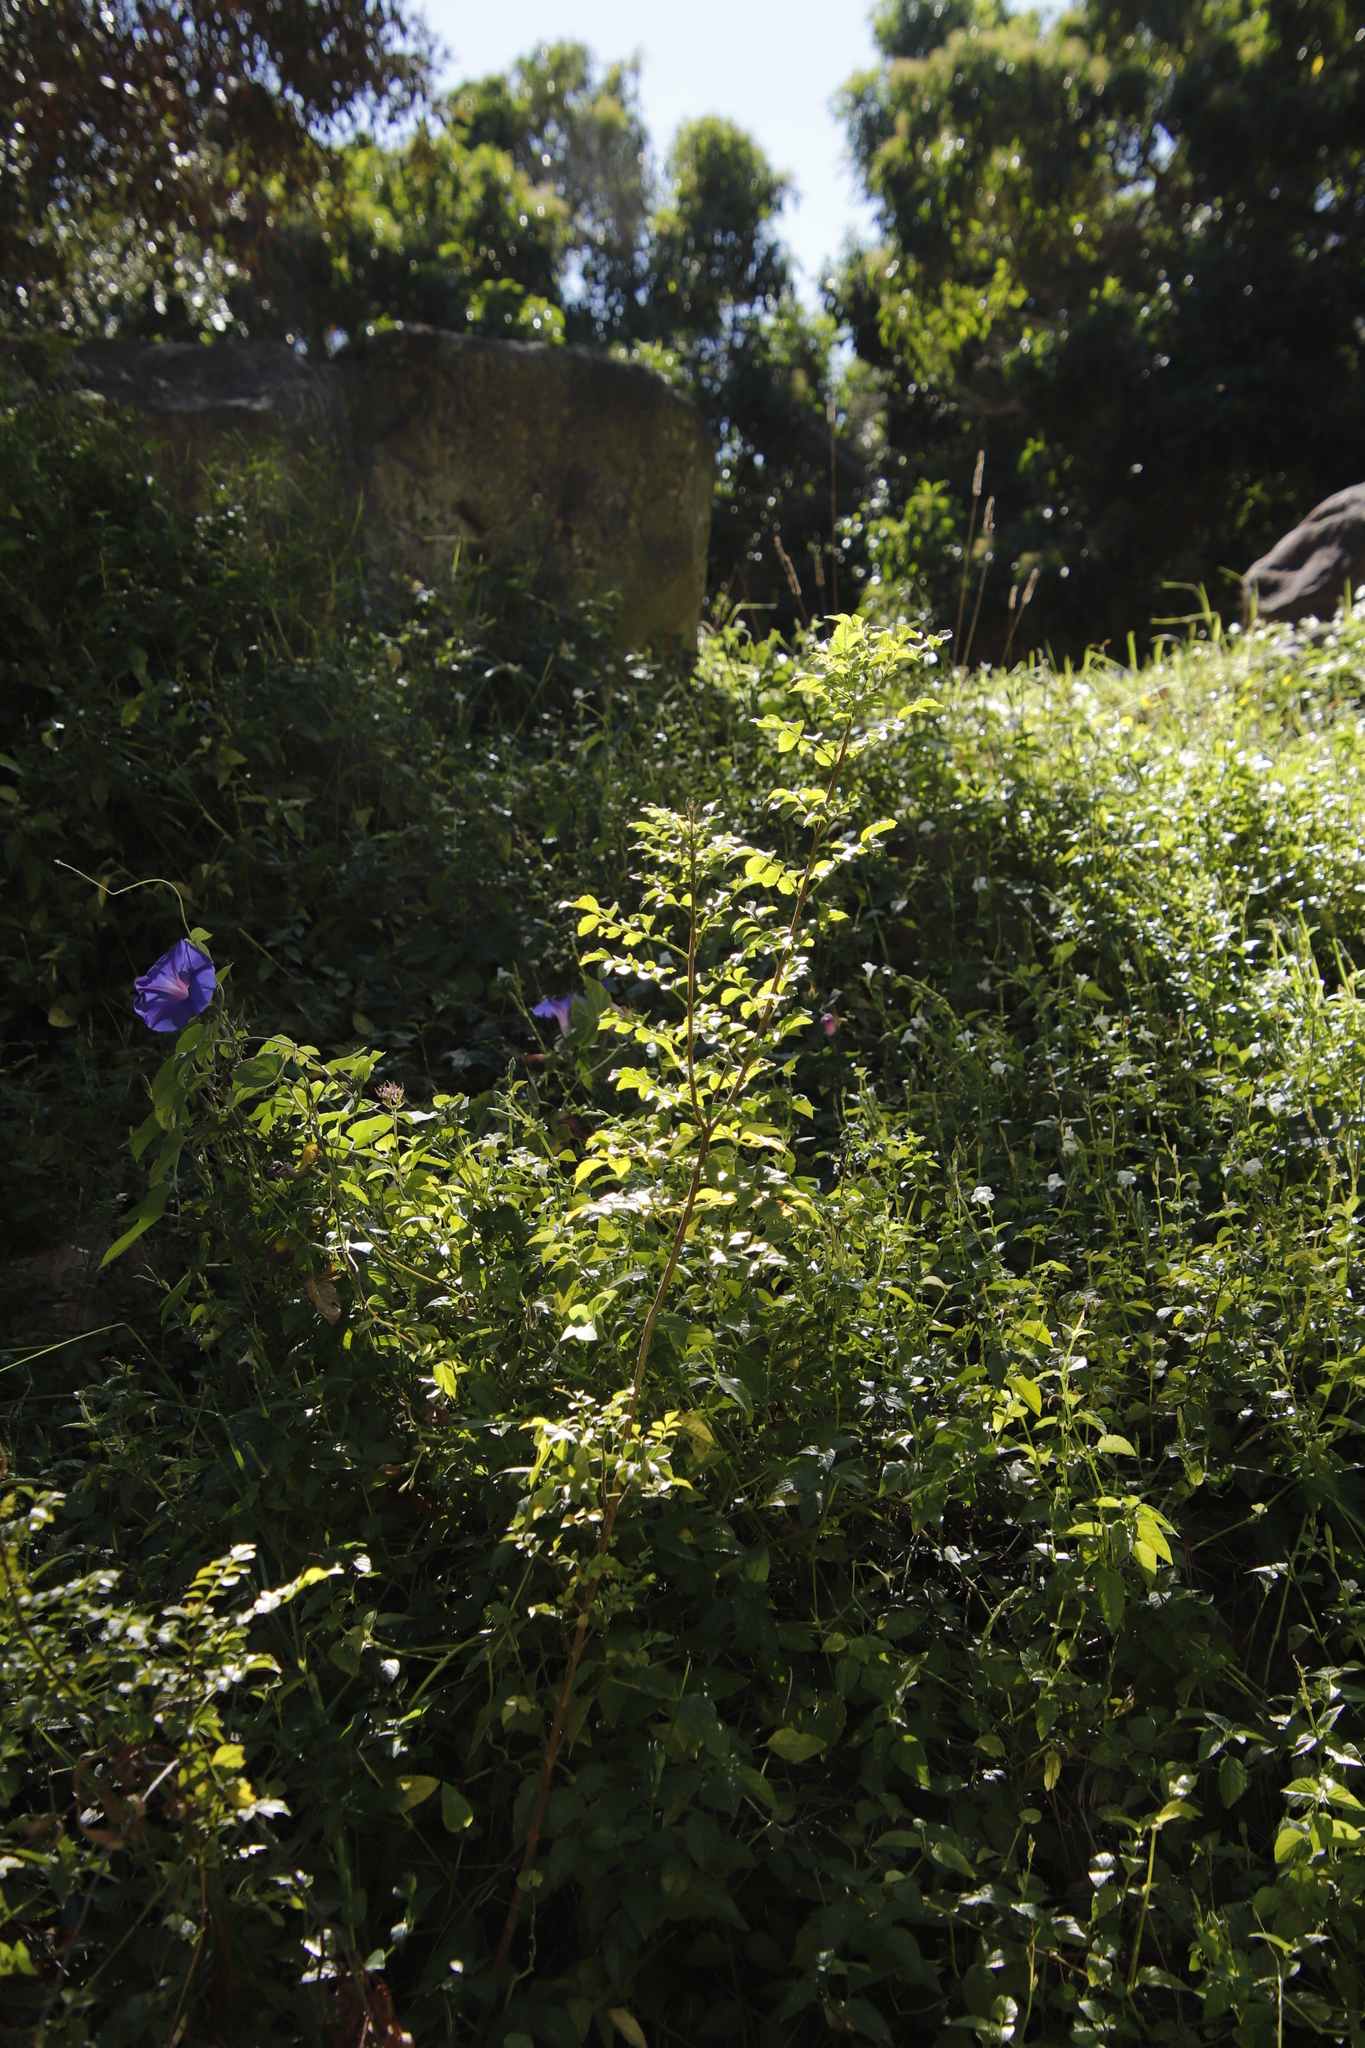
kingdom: Plantae
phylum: Tracheophyta
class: Magnoliopsida
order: Lamiales
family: Bignoniaceae
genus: Tecomaria
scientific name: Tecomaria capensis
